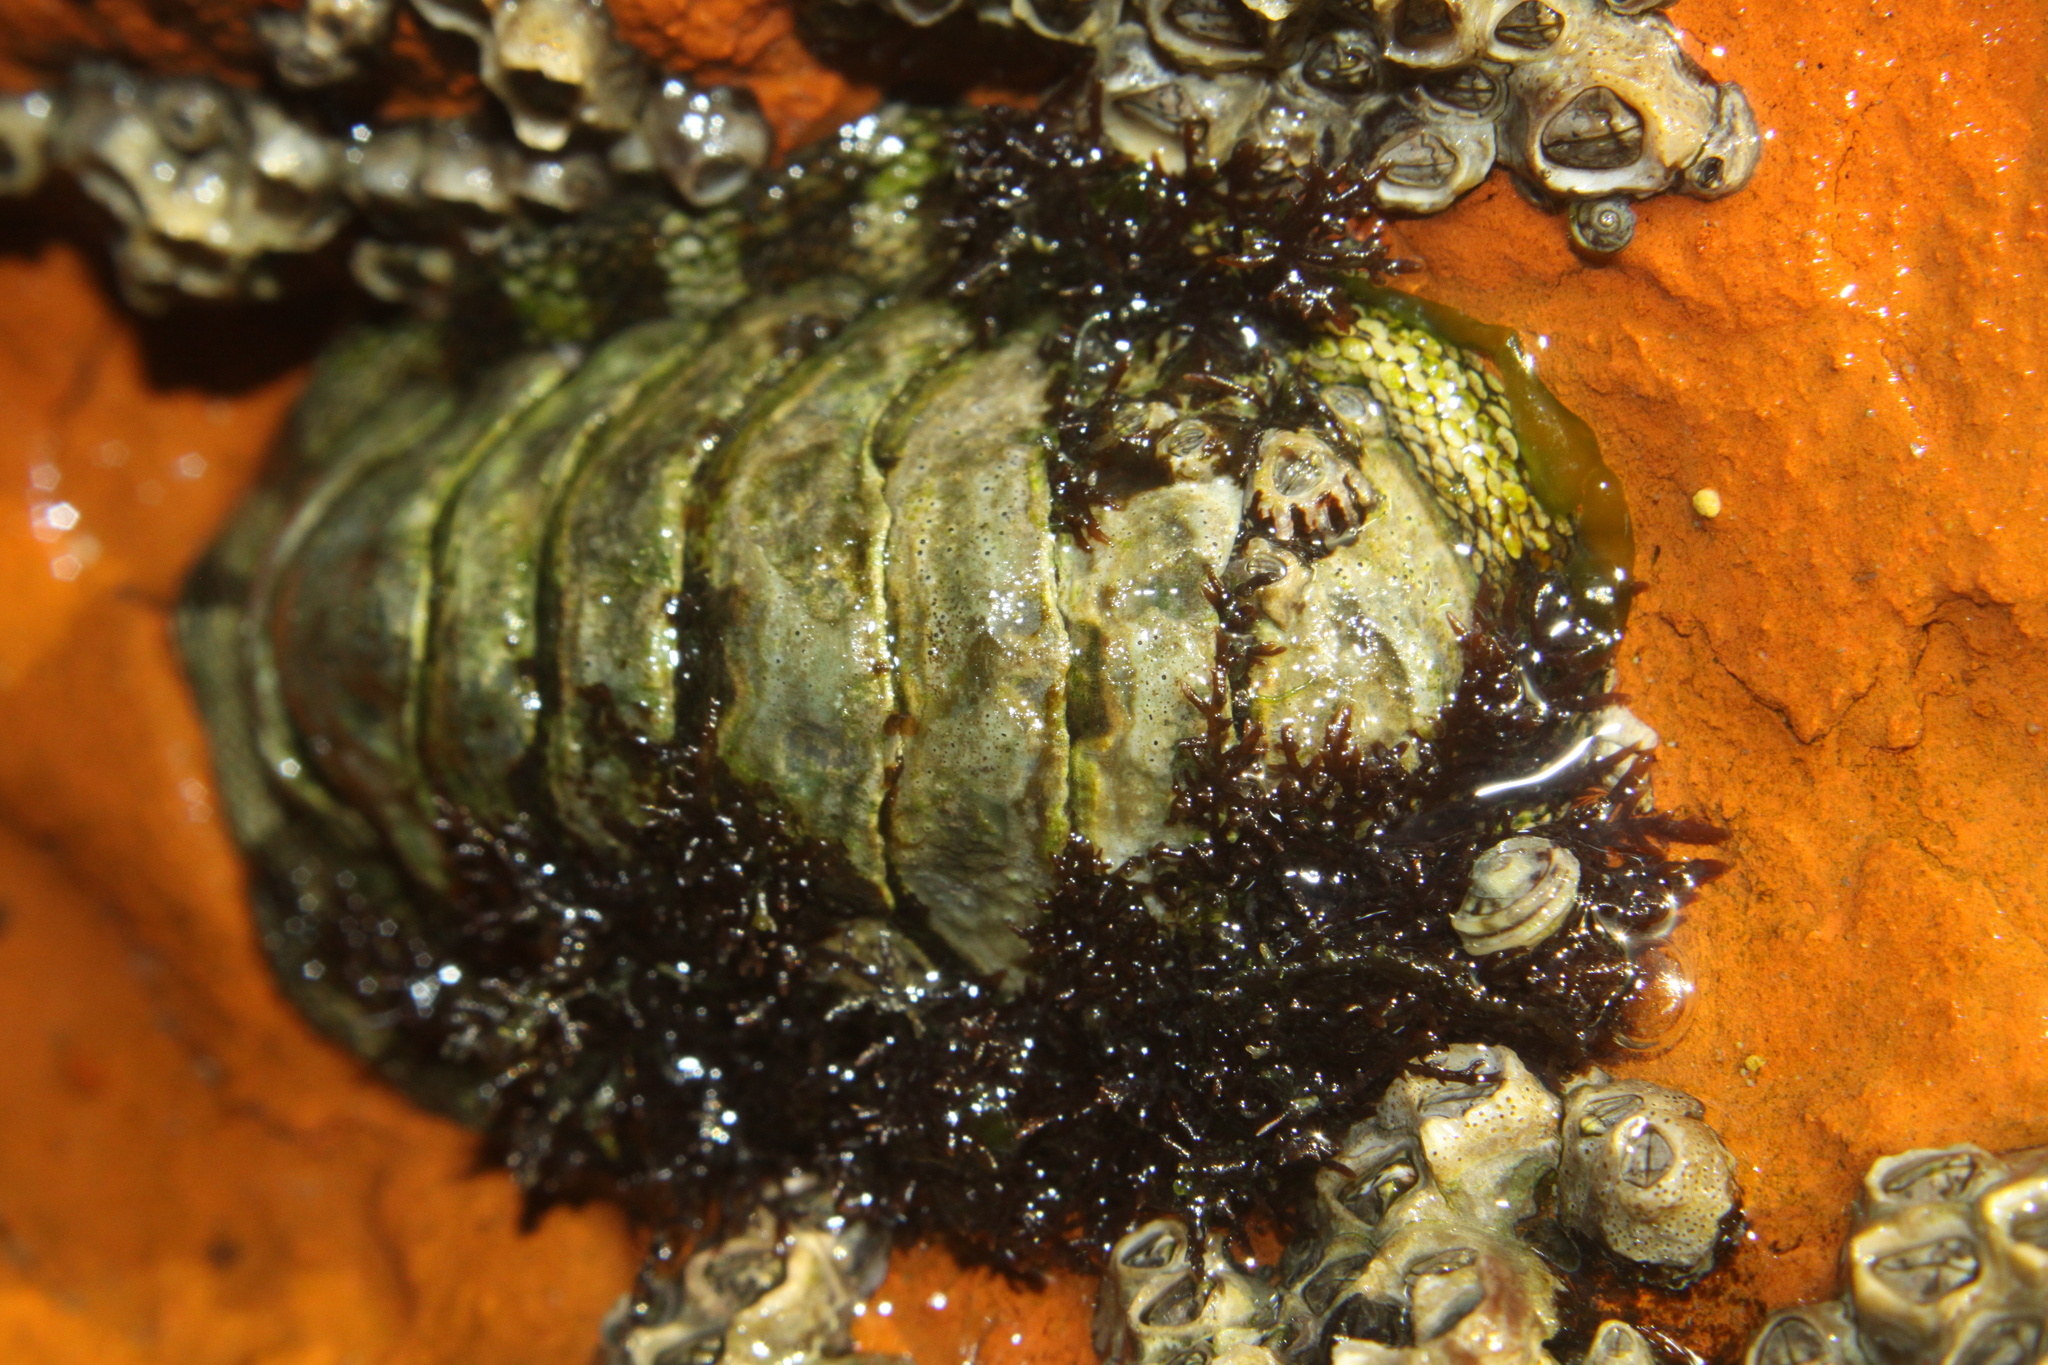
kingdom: Animalia
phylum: Mollusca
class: Polyplacophora
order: Chitonida
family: Chitonidae
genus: Sypharochiton
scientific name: Sypharochiton pelliserpentis
